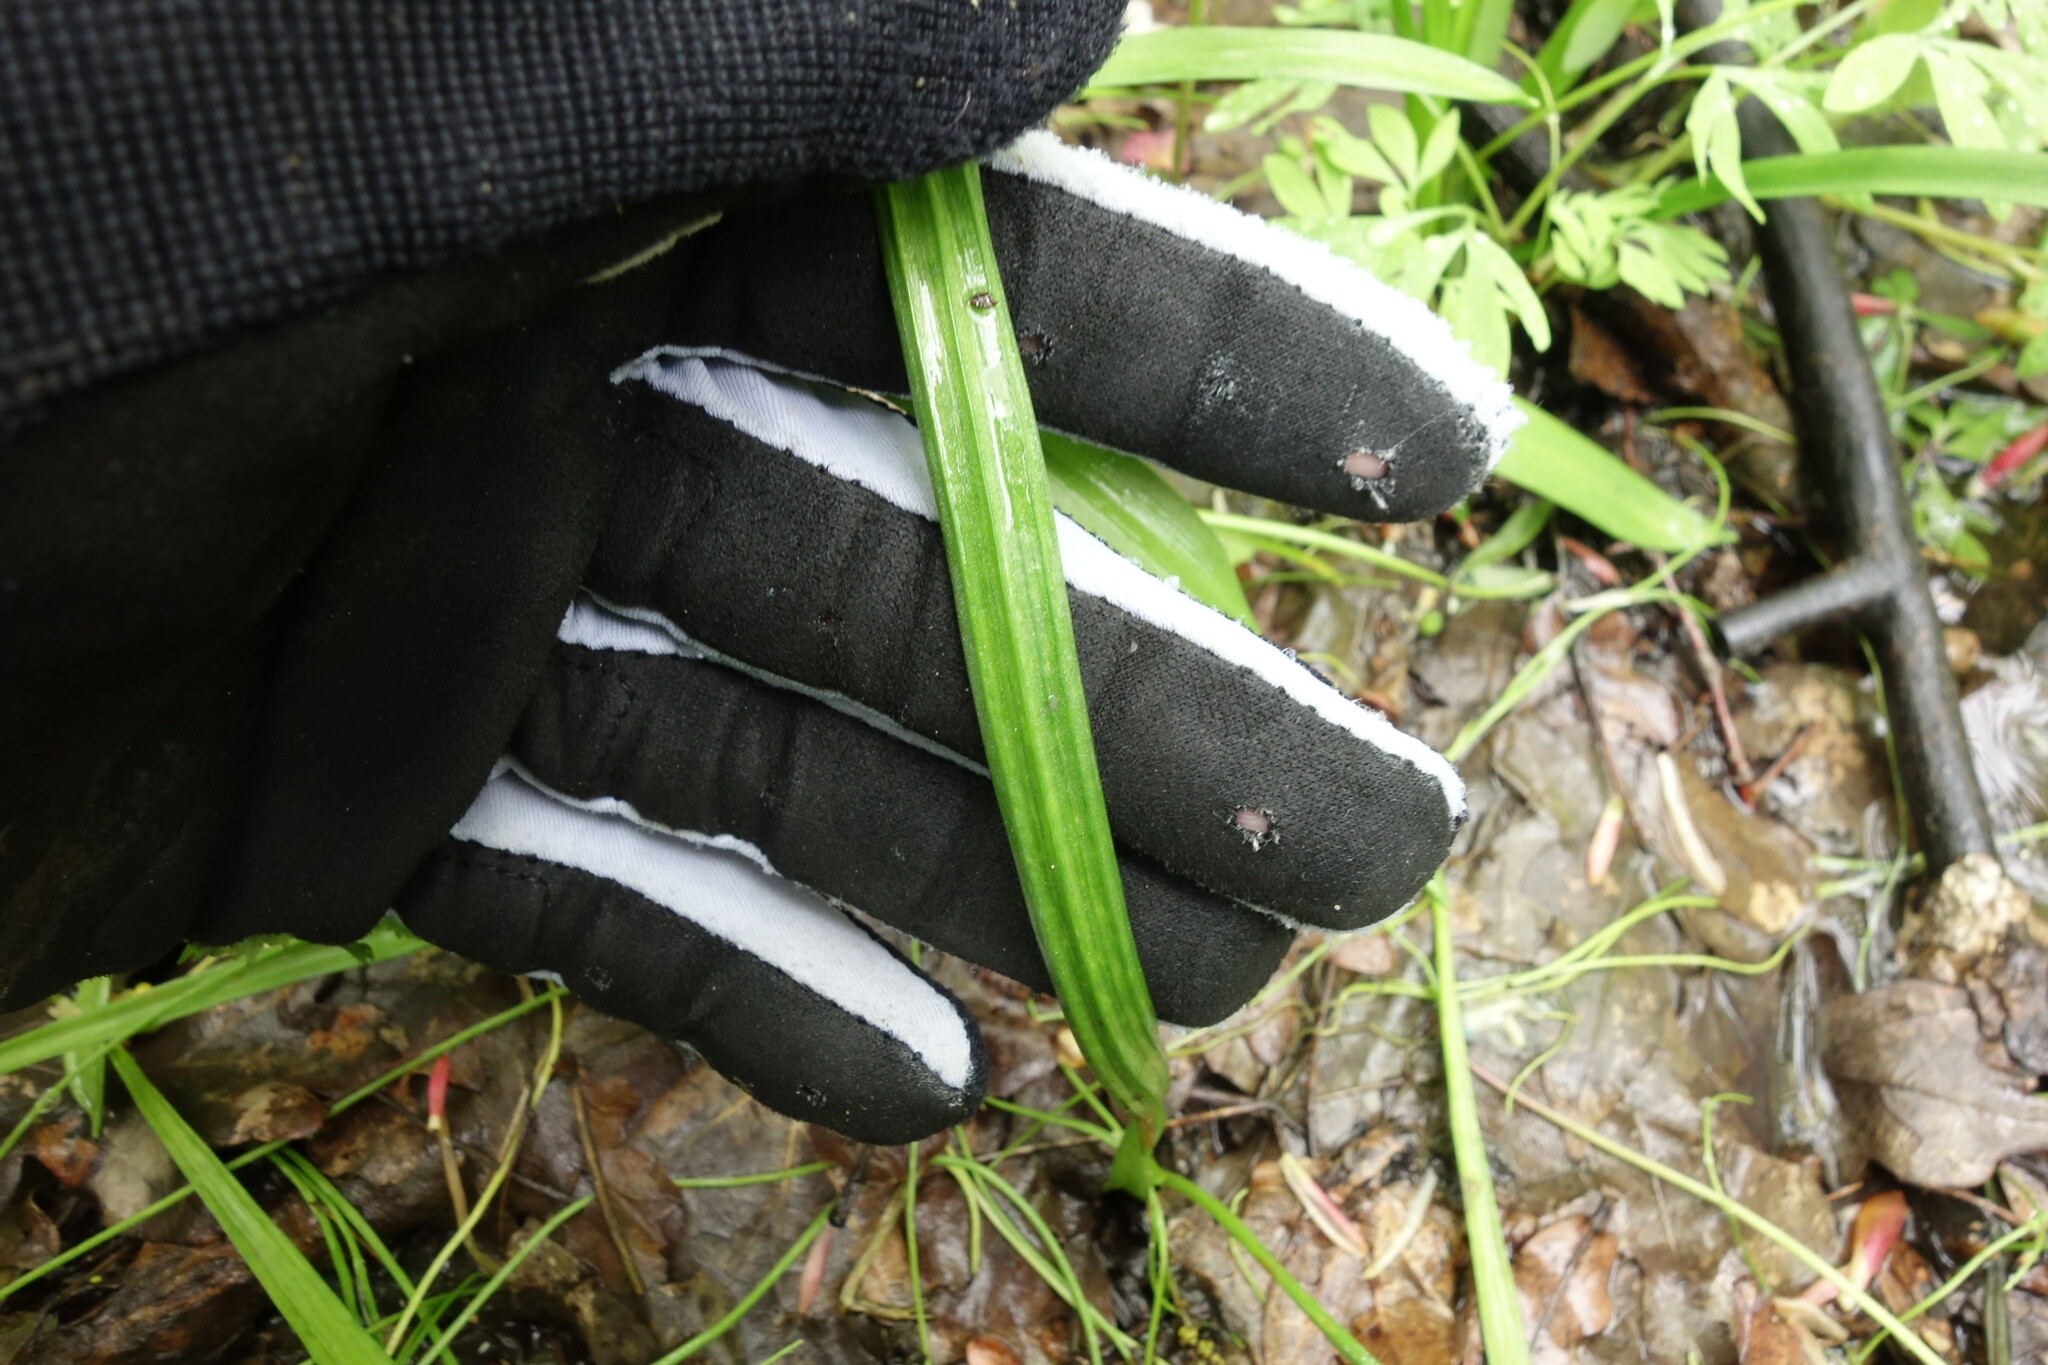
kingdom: Plantae
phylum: Tracheophyta
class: Liliopsida
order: Liliales
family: Liliaceae
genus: Gagea
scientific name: Gagea lutea
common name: Yellow star-of-bethlehem
